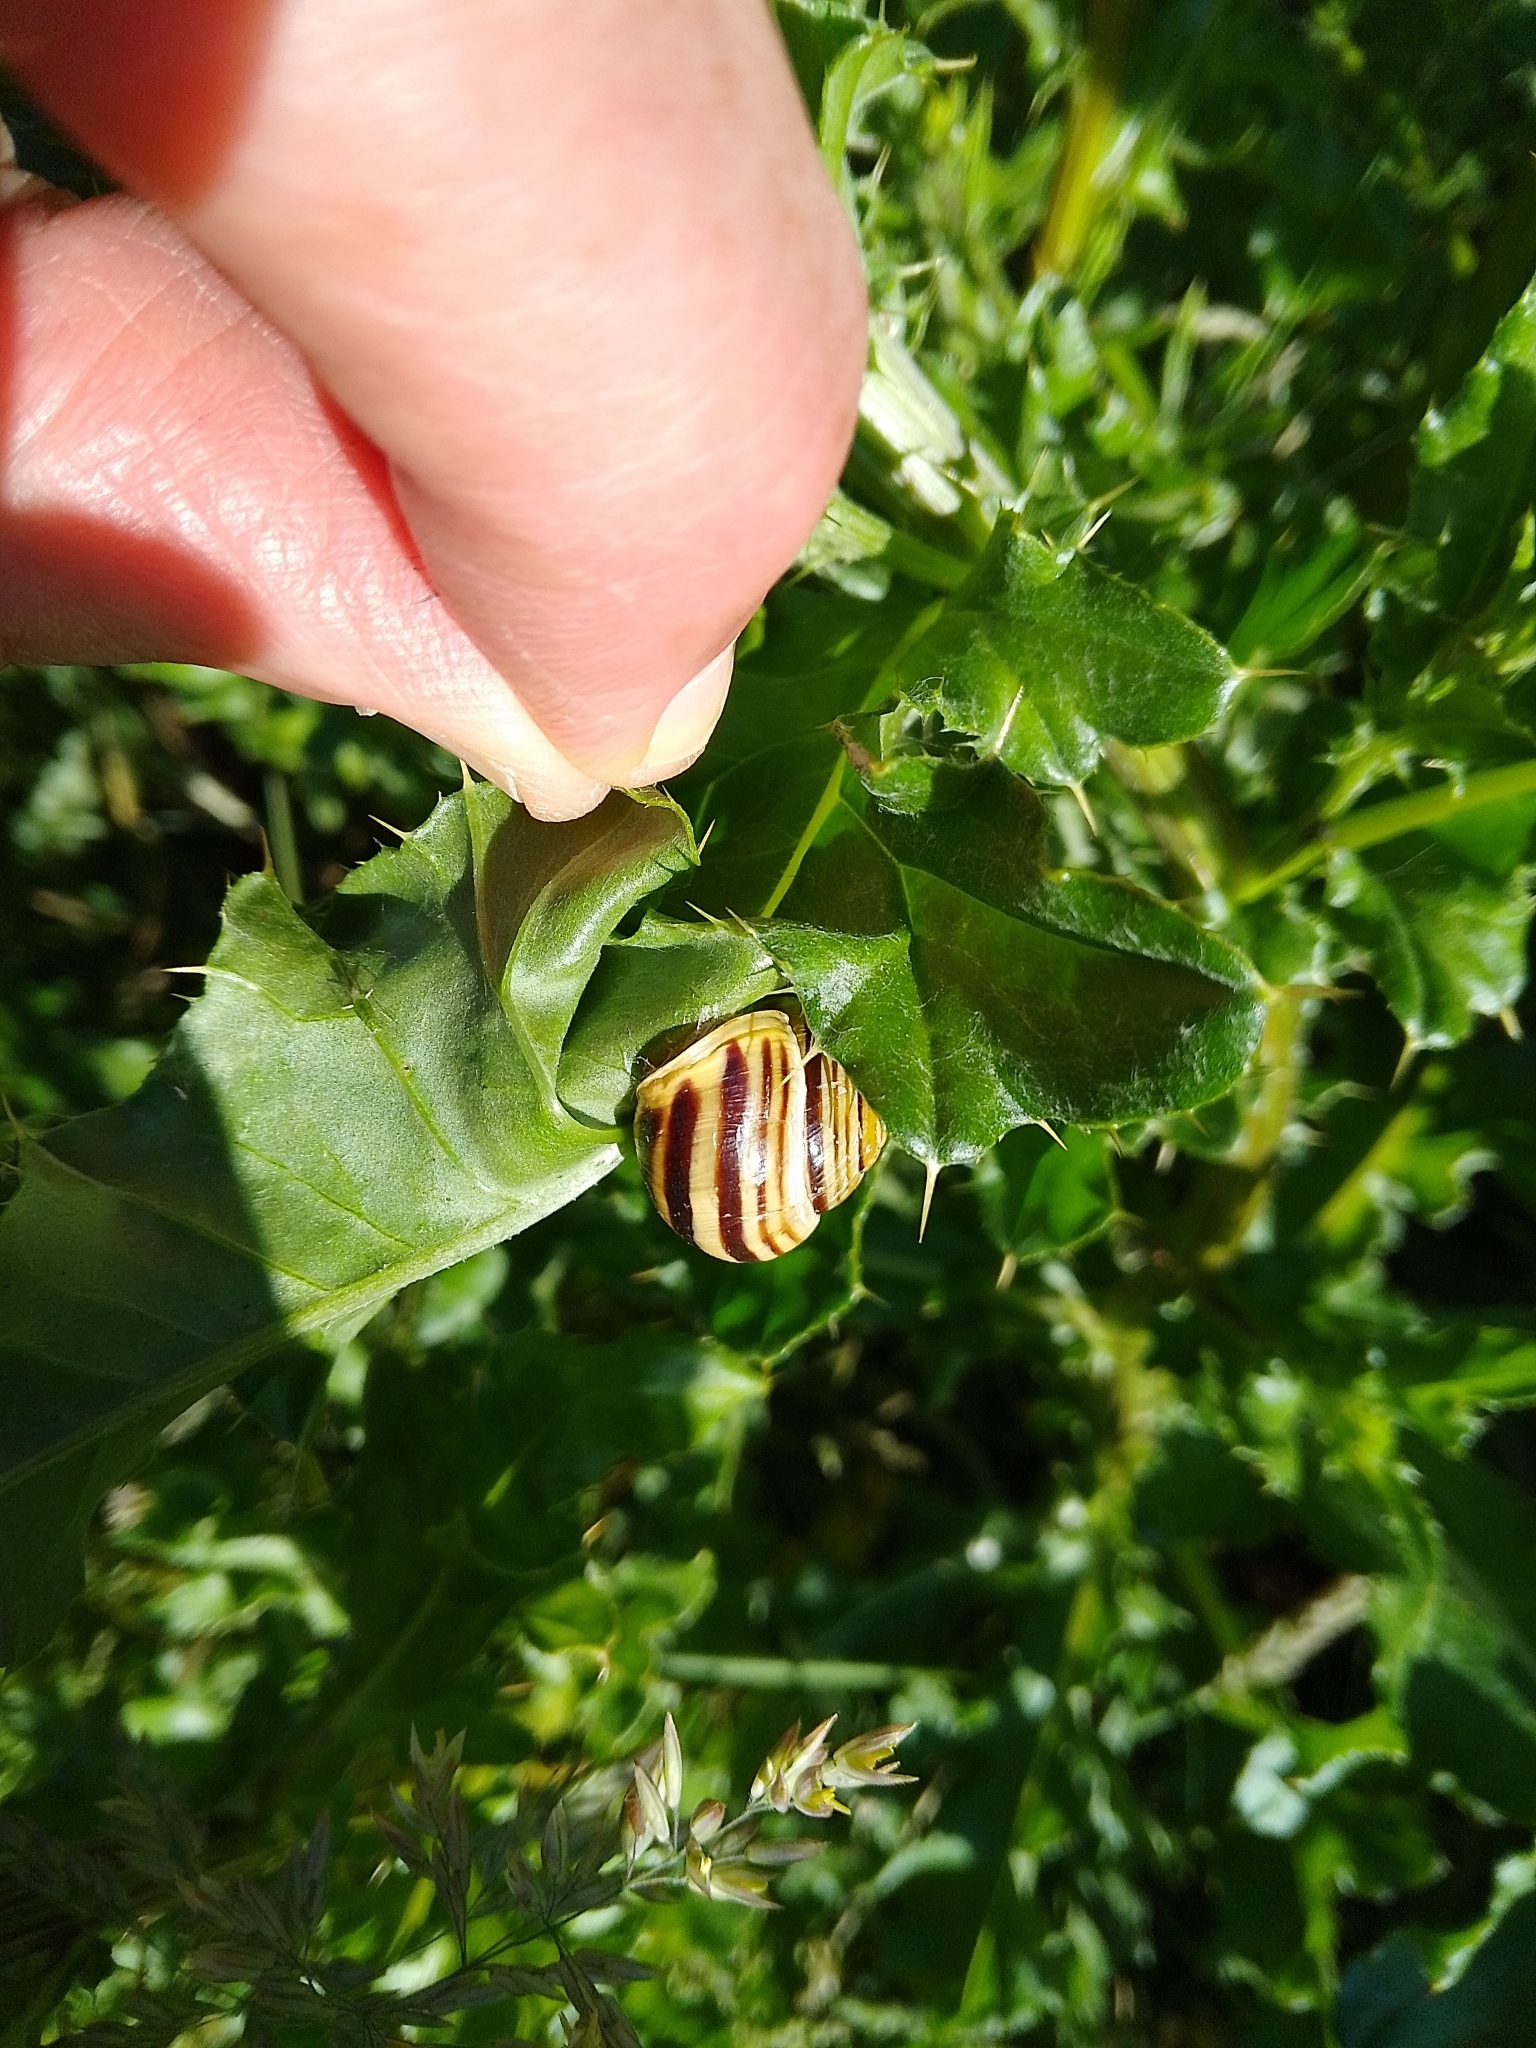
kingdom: Animalia
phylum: Mollusca
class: Gastropoda
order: Stylommatophora
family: Helicidae
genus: Cepaea
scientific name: Cepaea hortensis
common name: White-lip gardensnail
